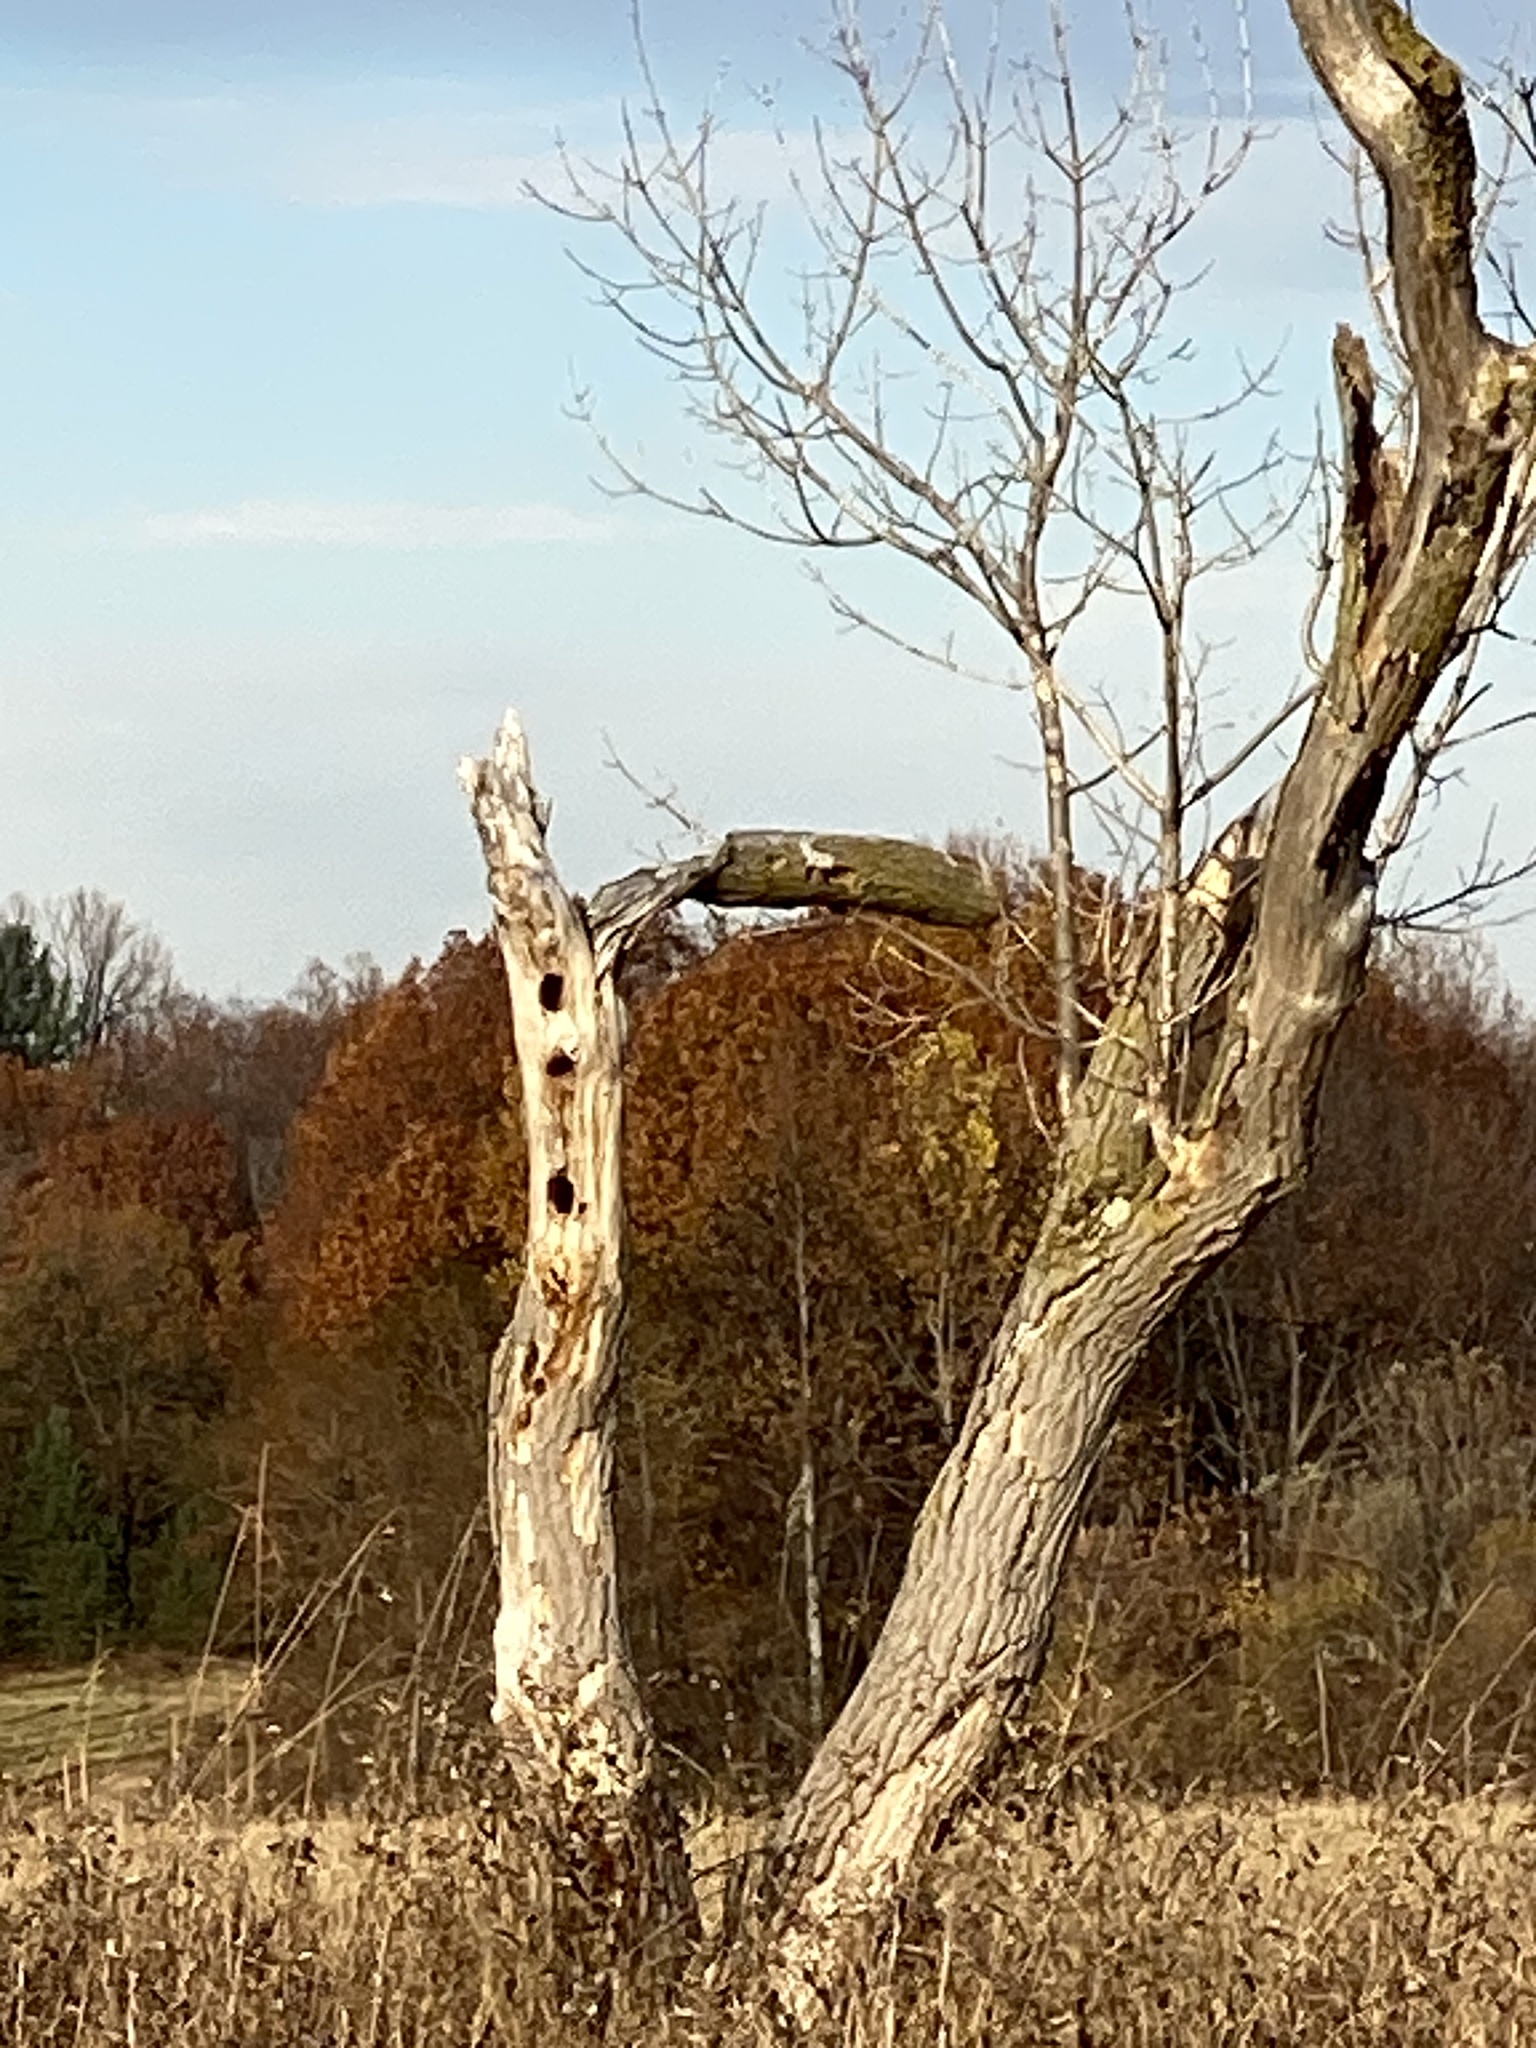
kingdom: Animalia
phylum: Chordata
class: Aves
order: Piciformes
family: Picidae
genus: Dryocopus
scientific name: Dryocopus pileatus
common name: Pileated woodpecker
